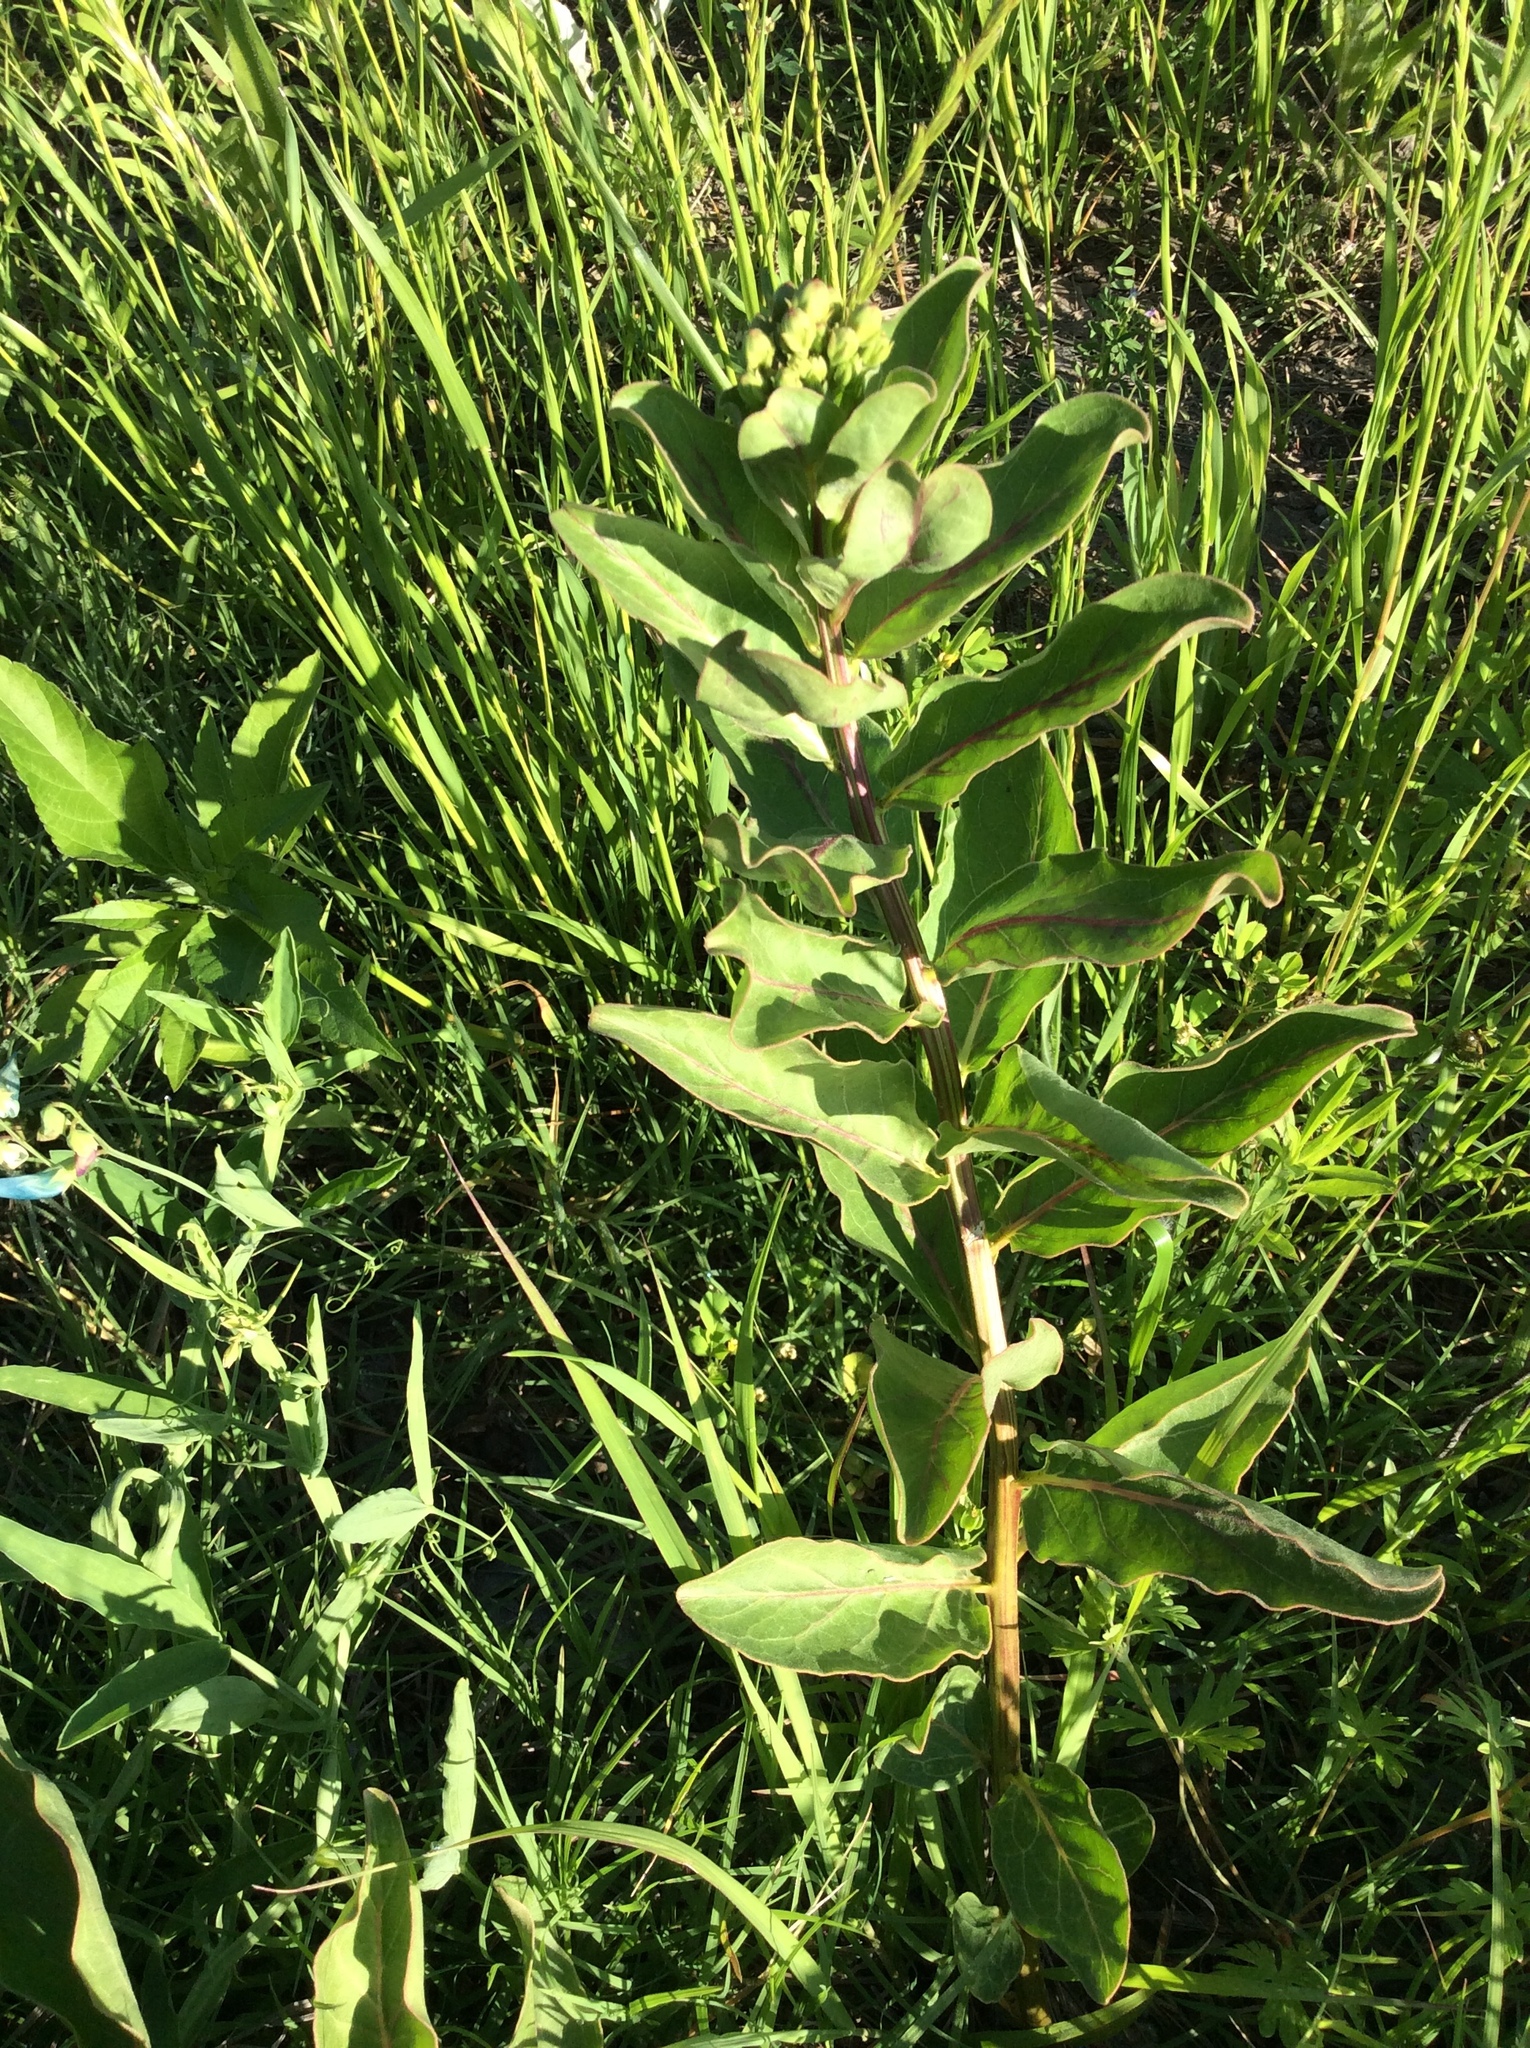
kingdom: Plantae
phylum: Tracheophyta
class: Magnoliopsida
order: Gentianales
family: Apocynaceae
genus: Asclepias
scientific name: Asclepias viridis
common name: Antelope-horns
